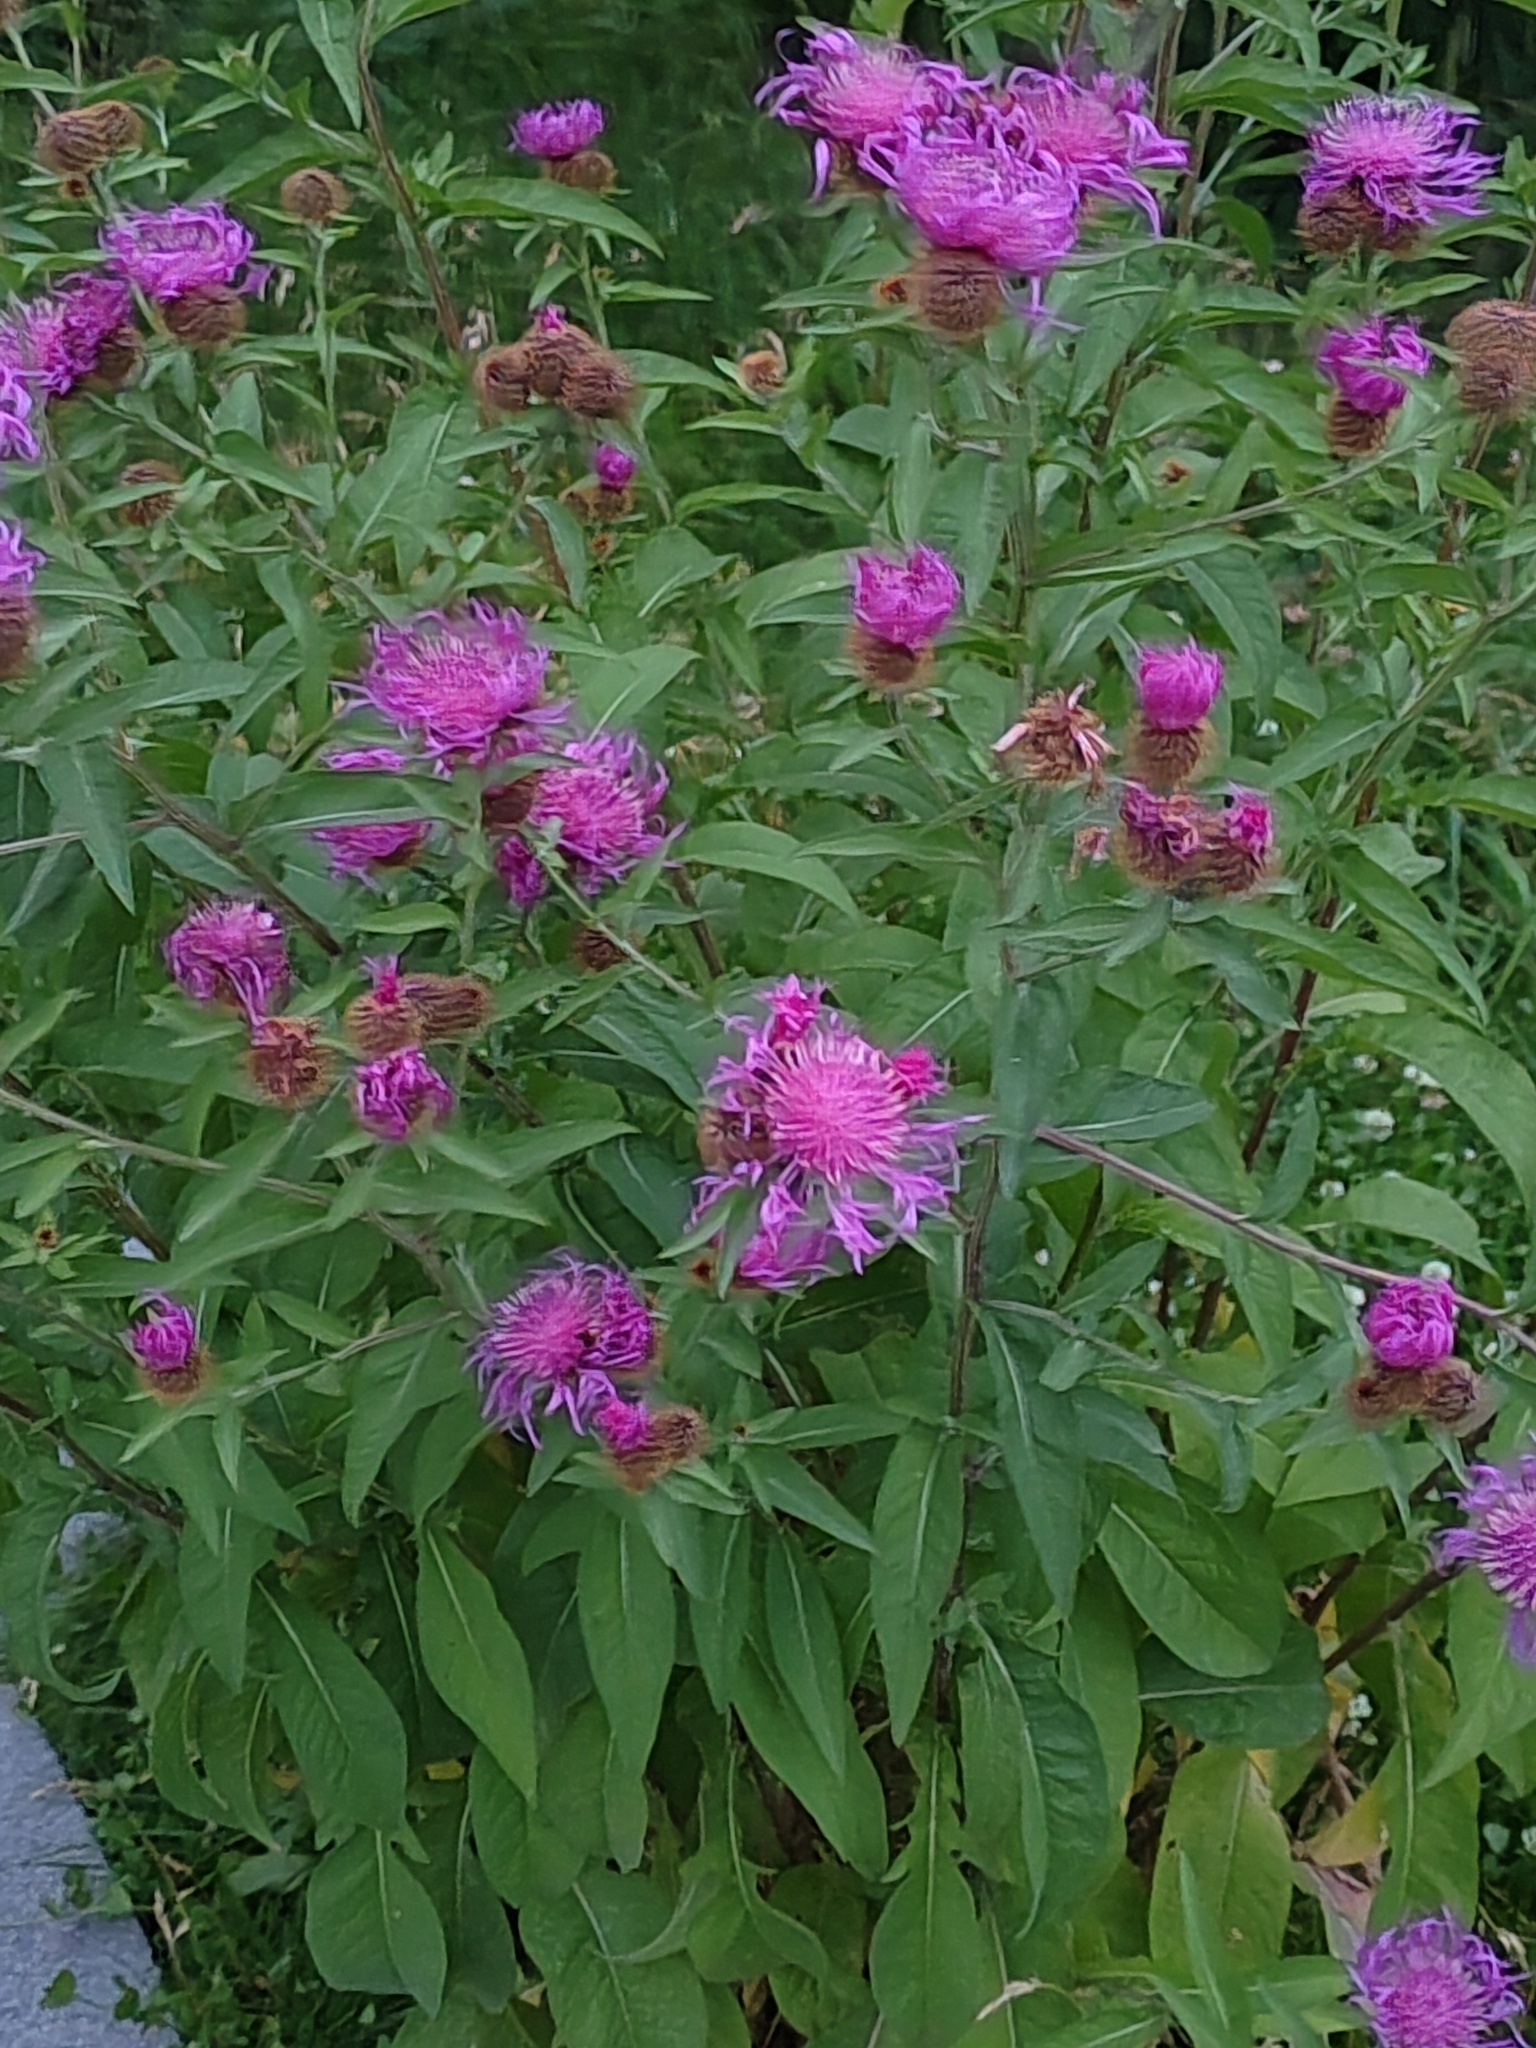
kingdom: Plantae
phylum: Tracheophyta
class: Magnoliopsida
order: Asterales
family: Asteraceae
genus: Centaurea
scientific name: Centaurea pseudophrygia
